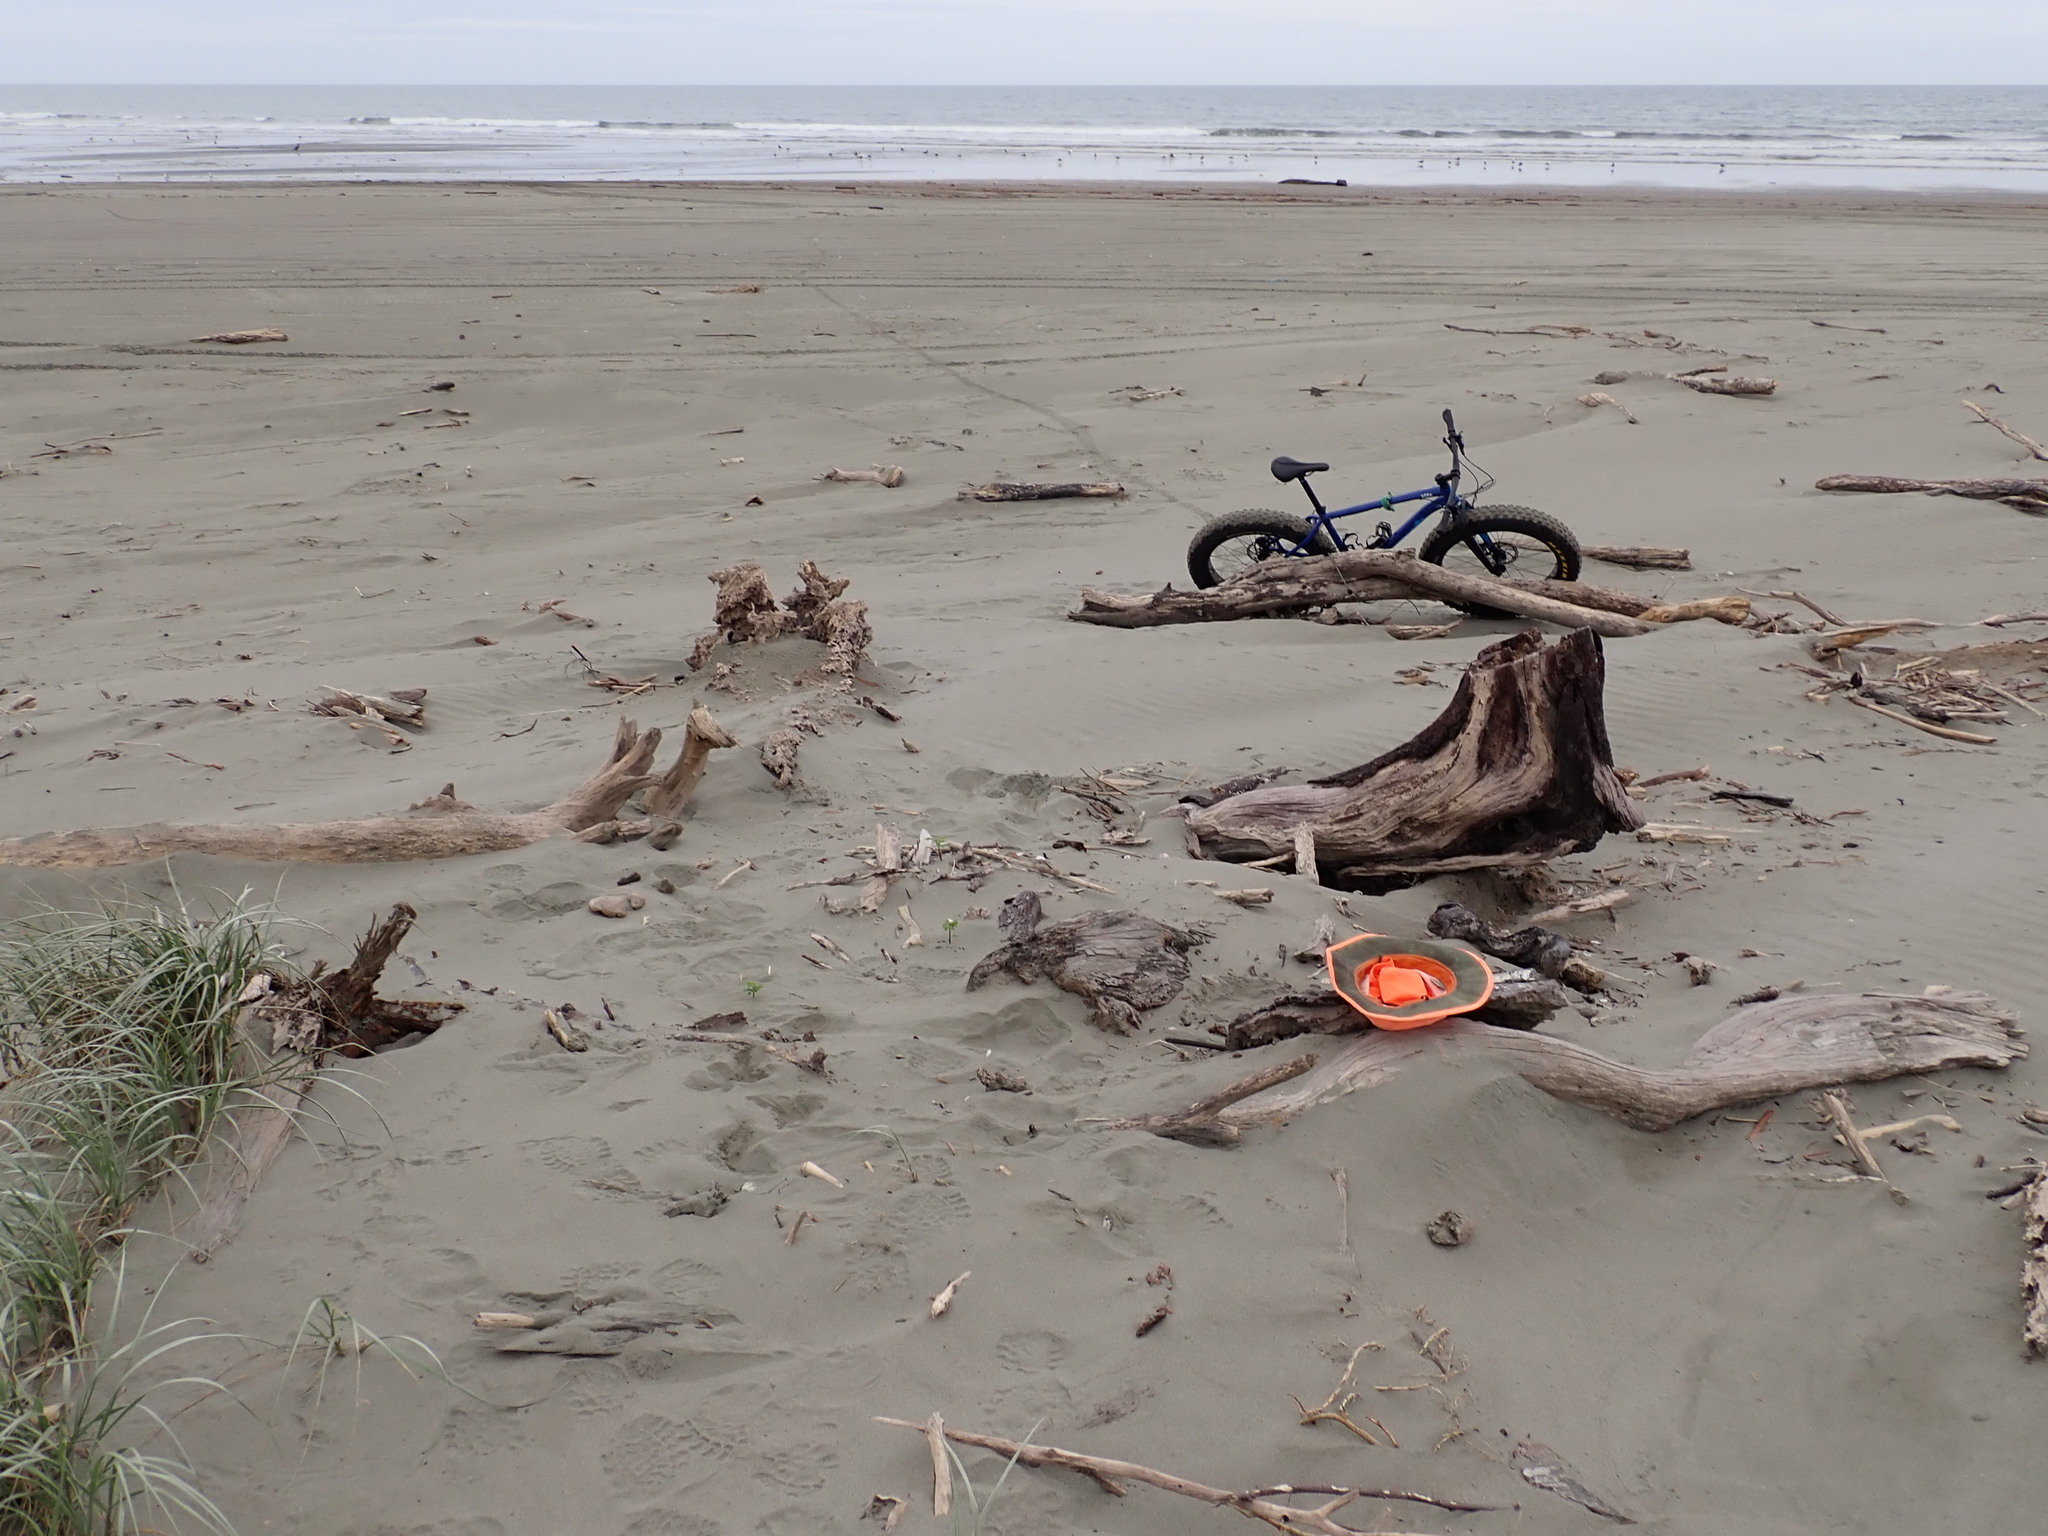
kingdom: Animalia
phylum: Arthropoda
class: Insecta
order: Dermaptera
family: Anisolabididae
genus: Anisolabis
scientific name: Anisolabis littorea
